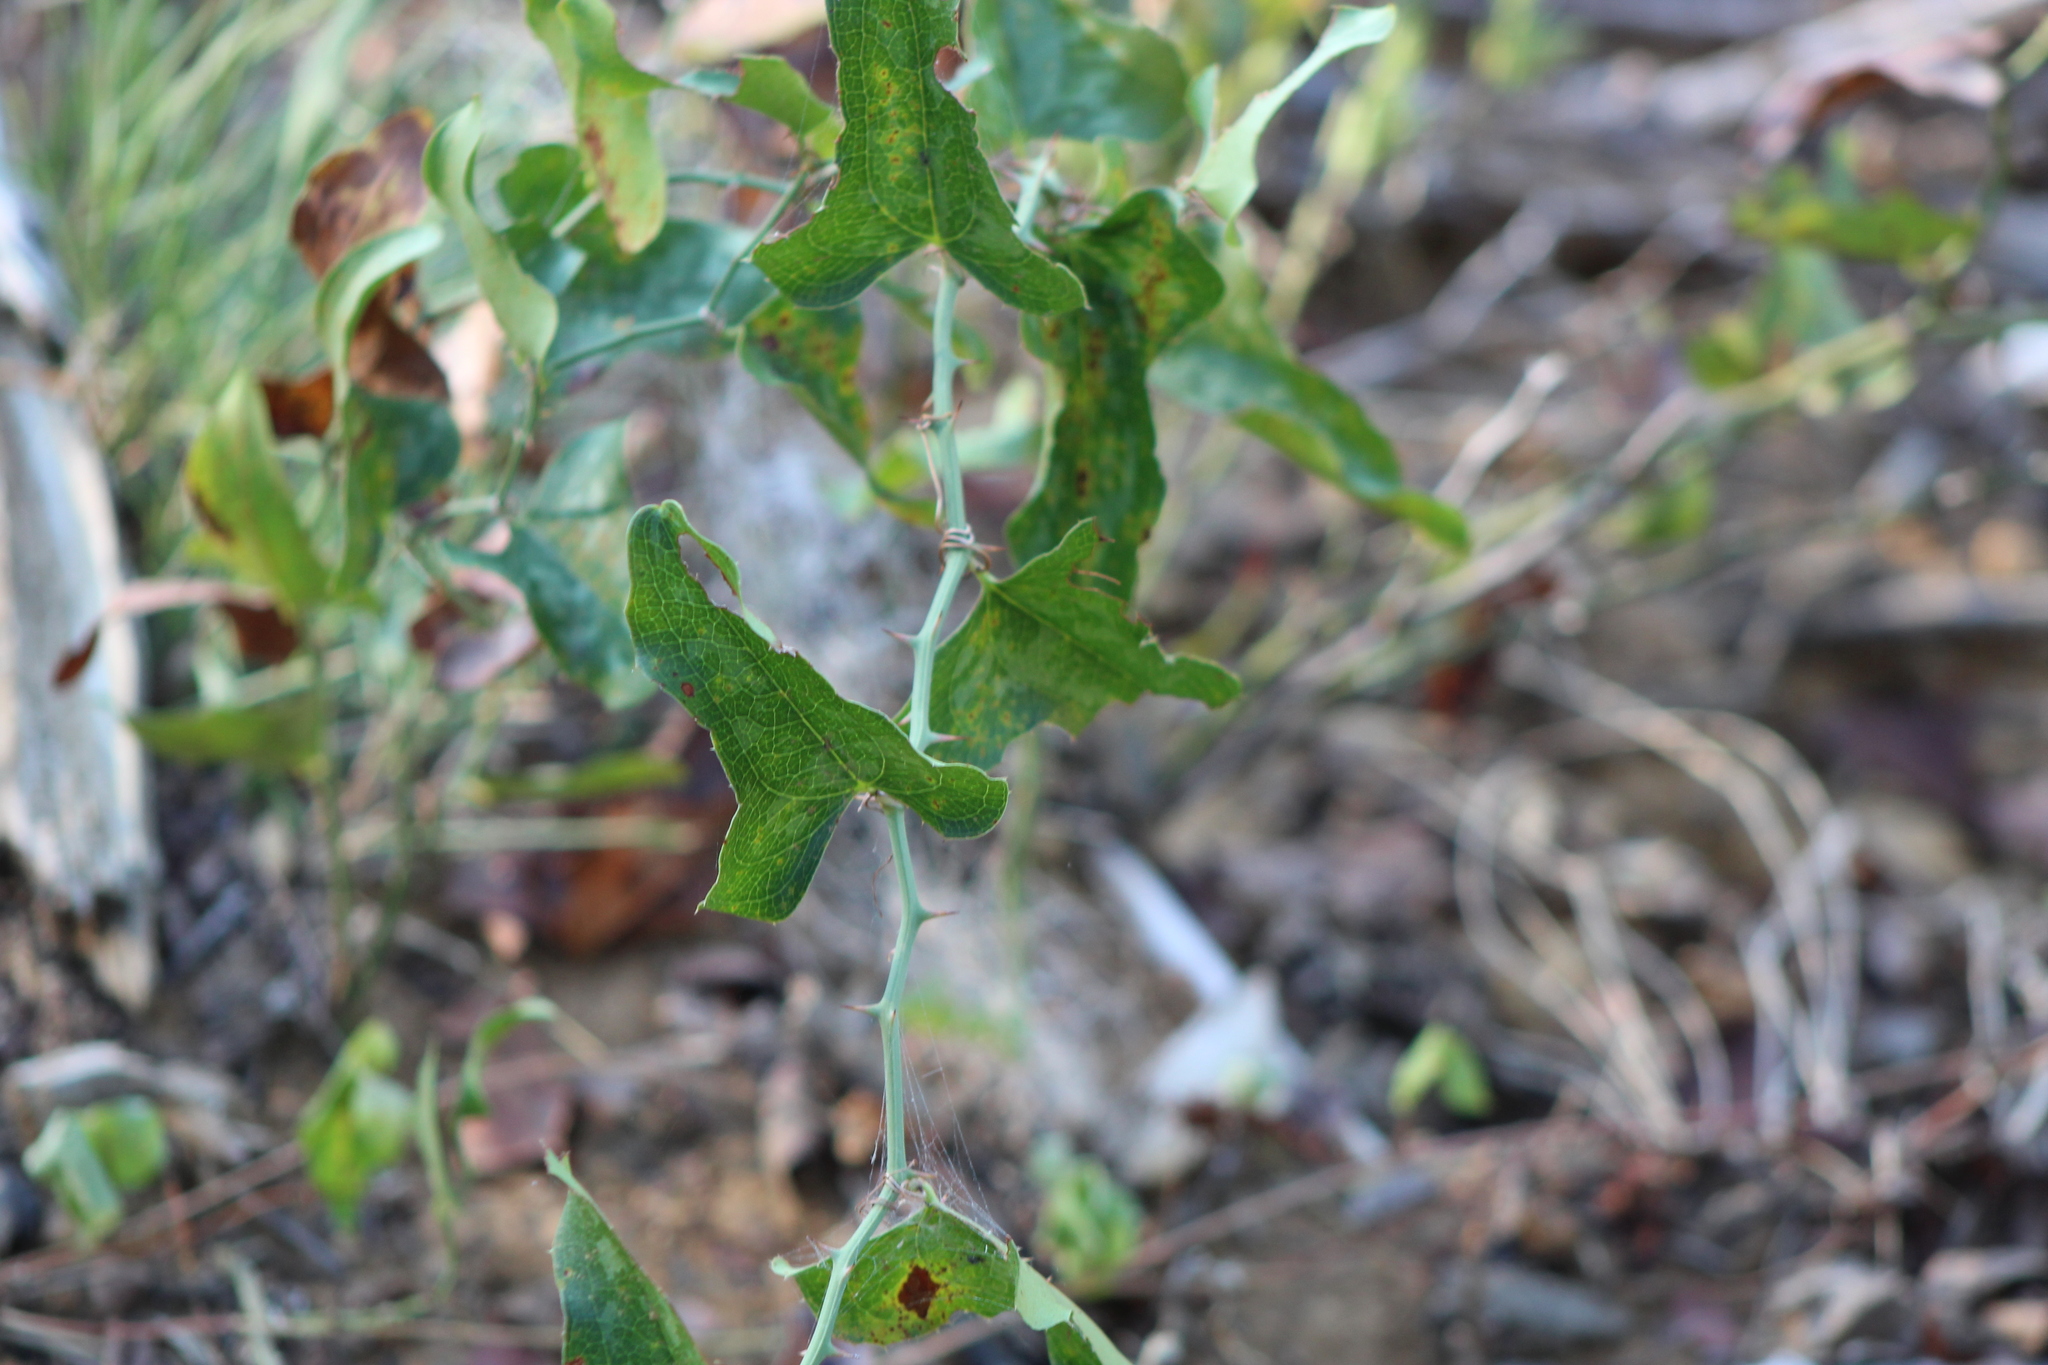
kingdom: Plantae
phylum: Tracheophyta
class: Liliopsida
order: Liliales
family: Smilacaceae
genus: Smilax
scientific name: Smilax bona-nox
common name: Catbrier
